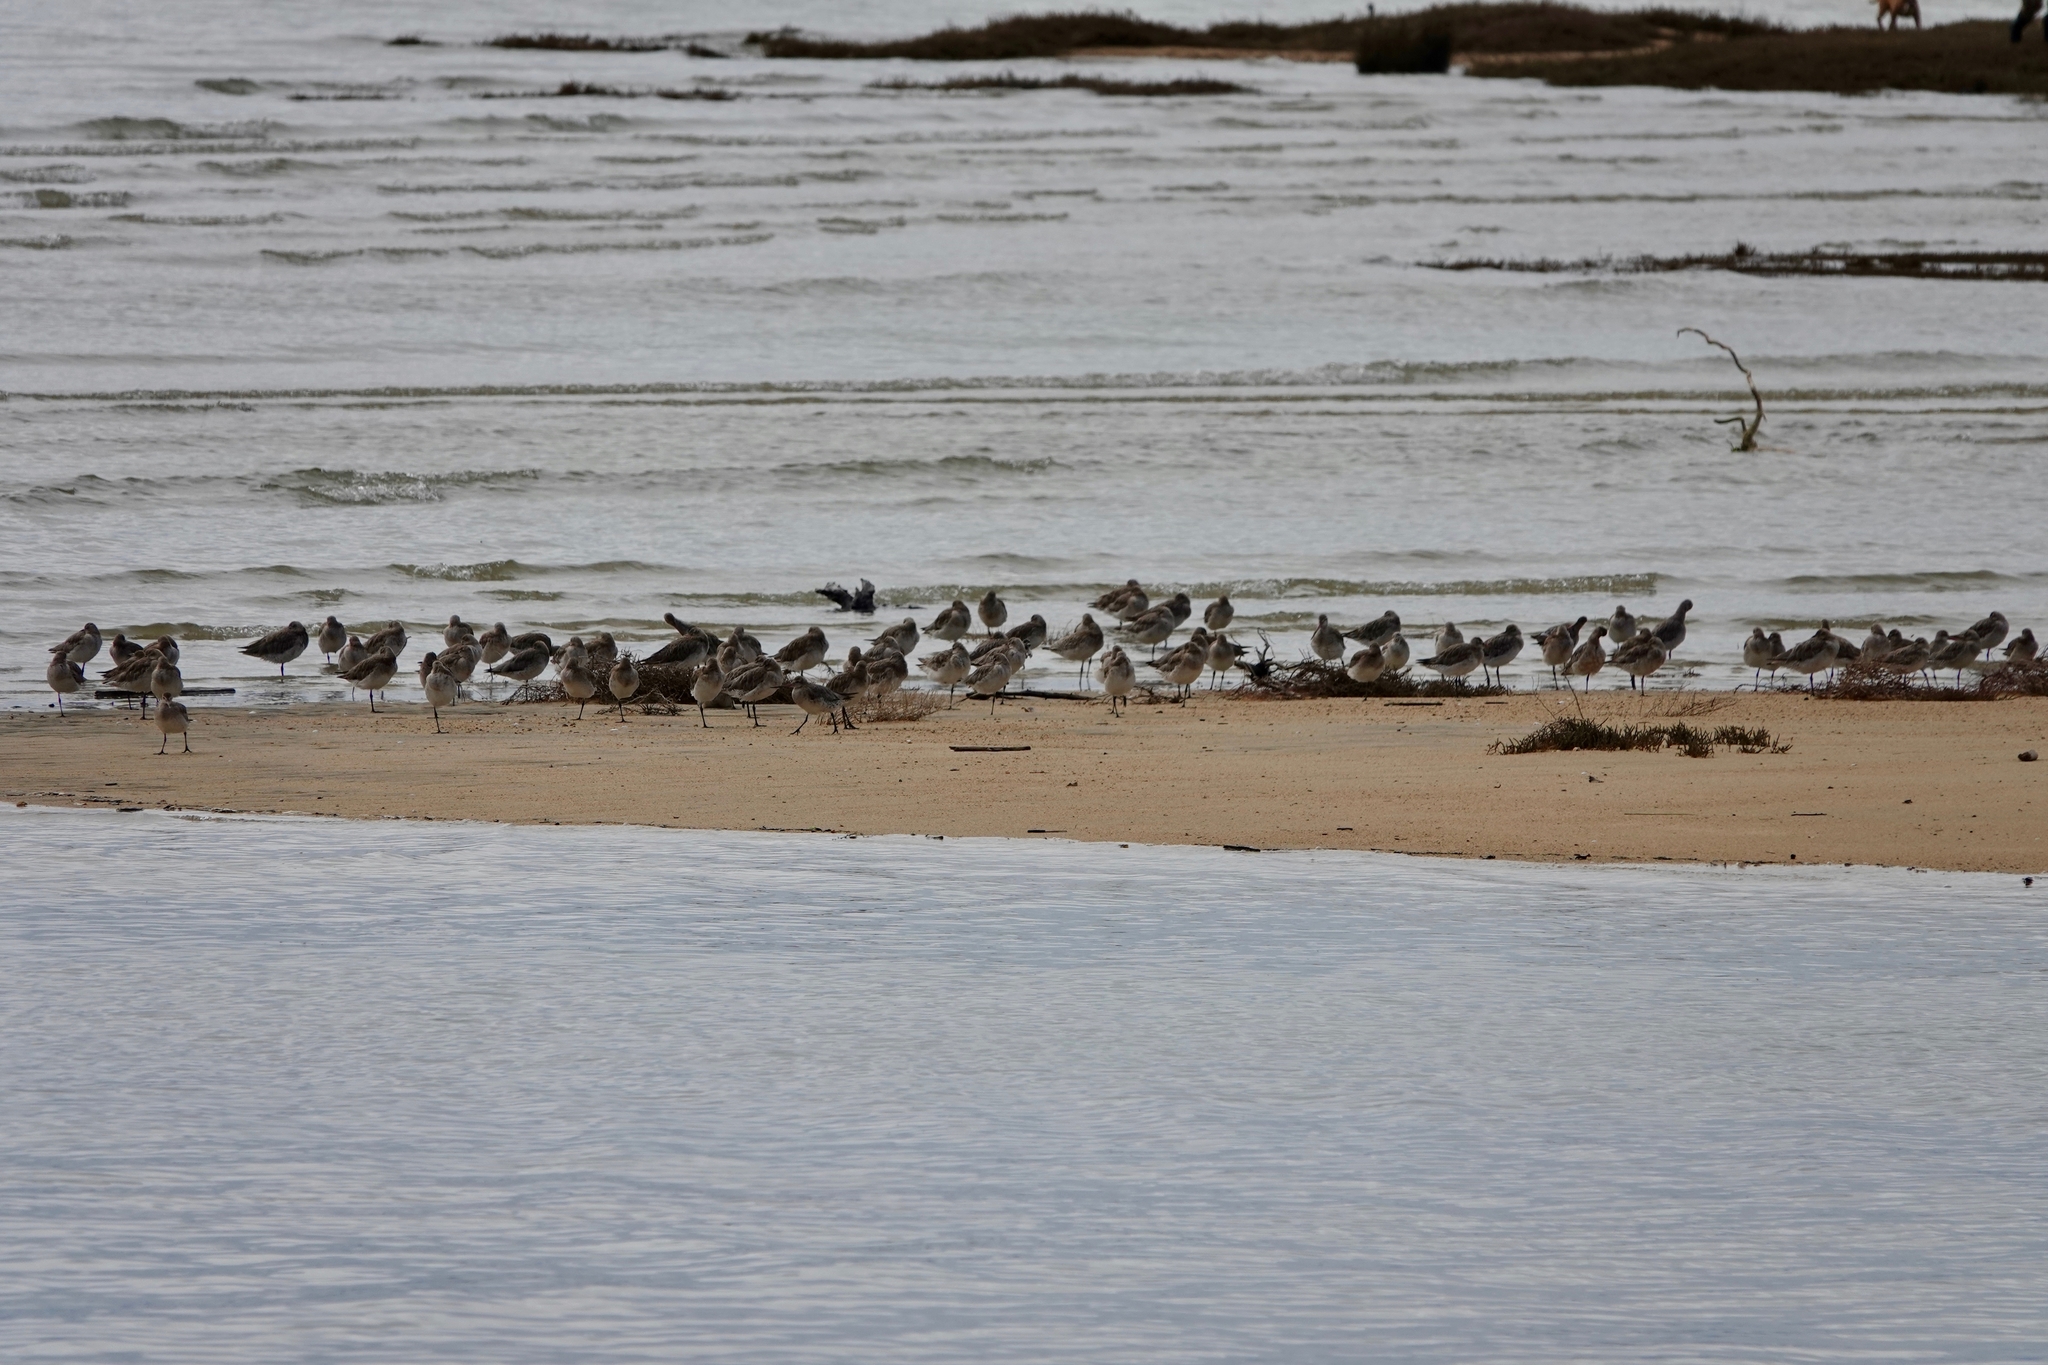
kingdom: Animalia
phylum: Chordata
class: Aves
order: Charadriiformes
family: Scolopacidae
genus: Limosa
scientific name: Limosa lapponica
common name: Bar-tailed godwit
